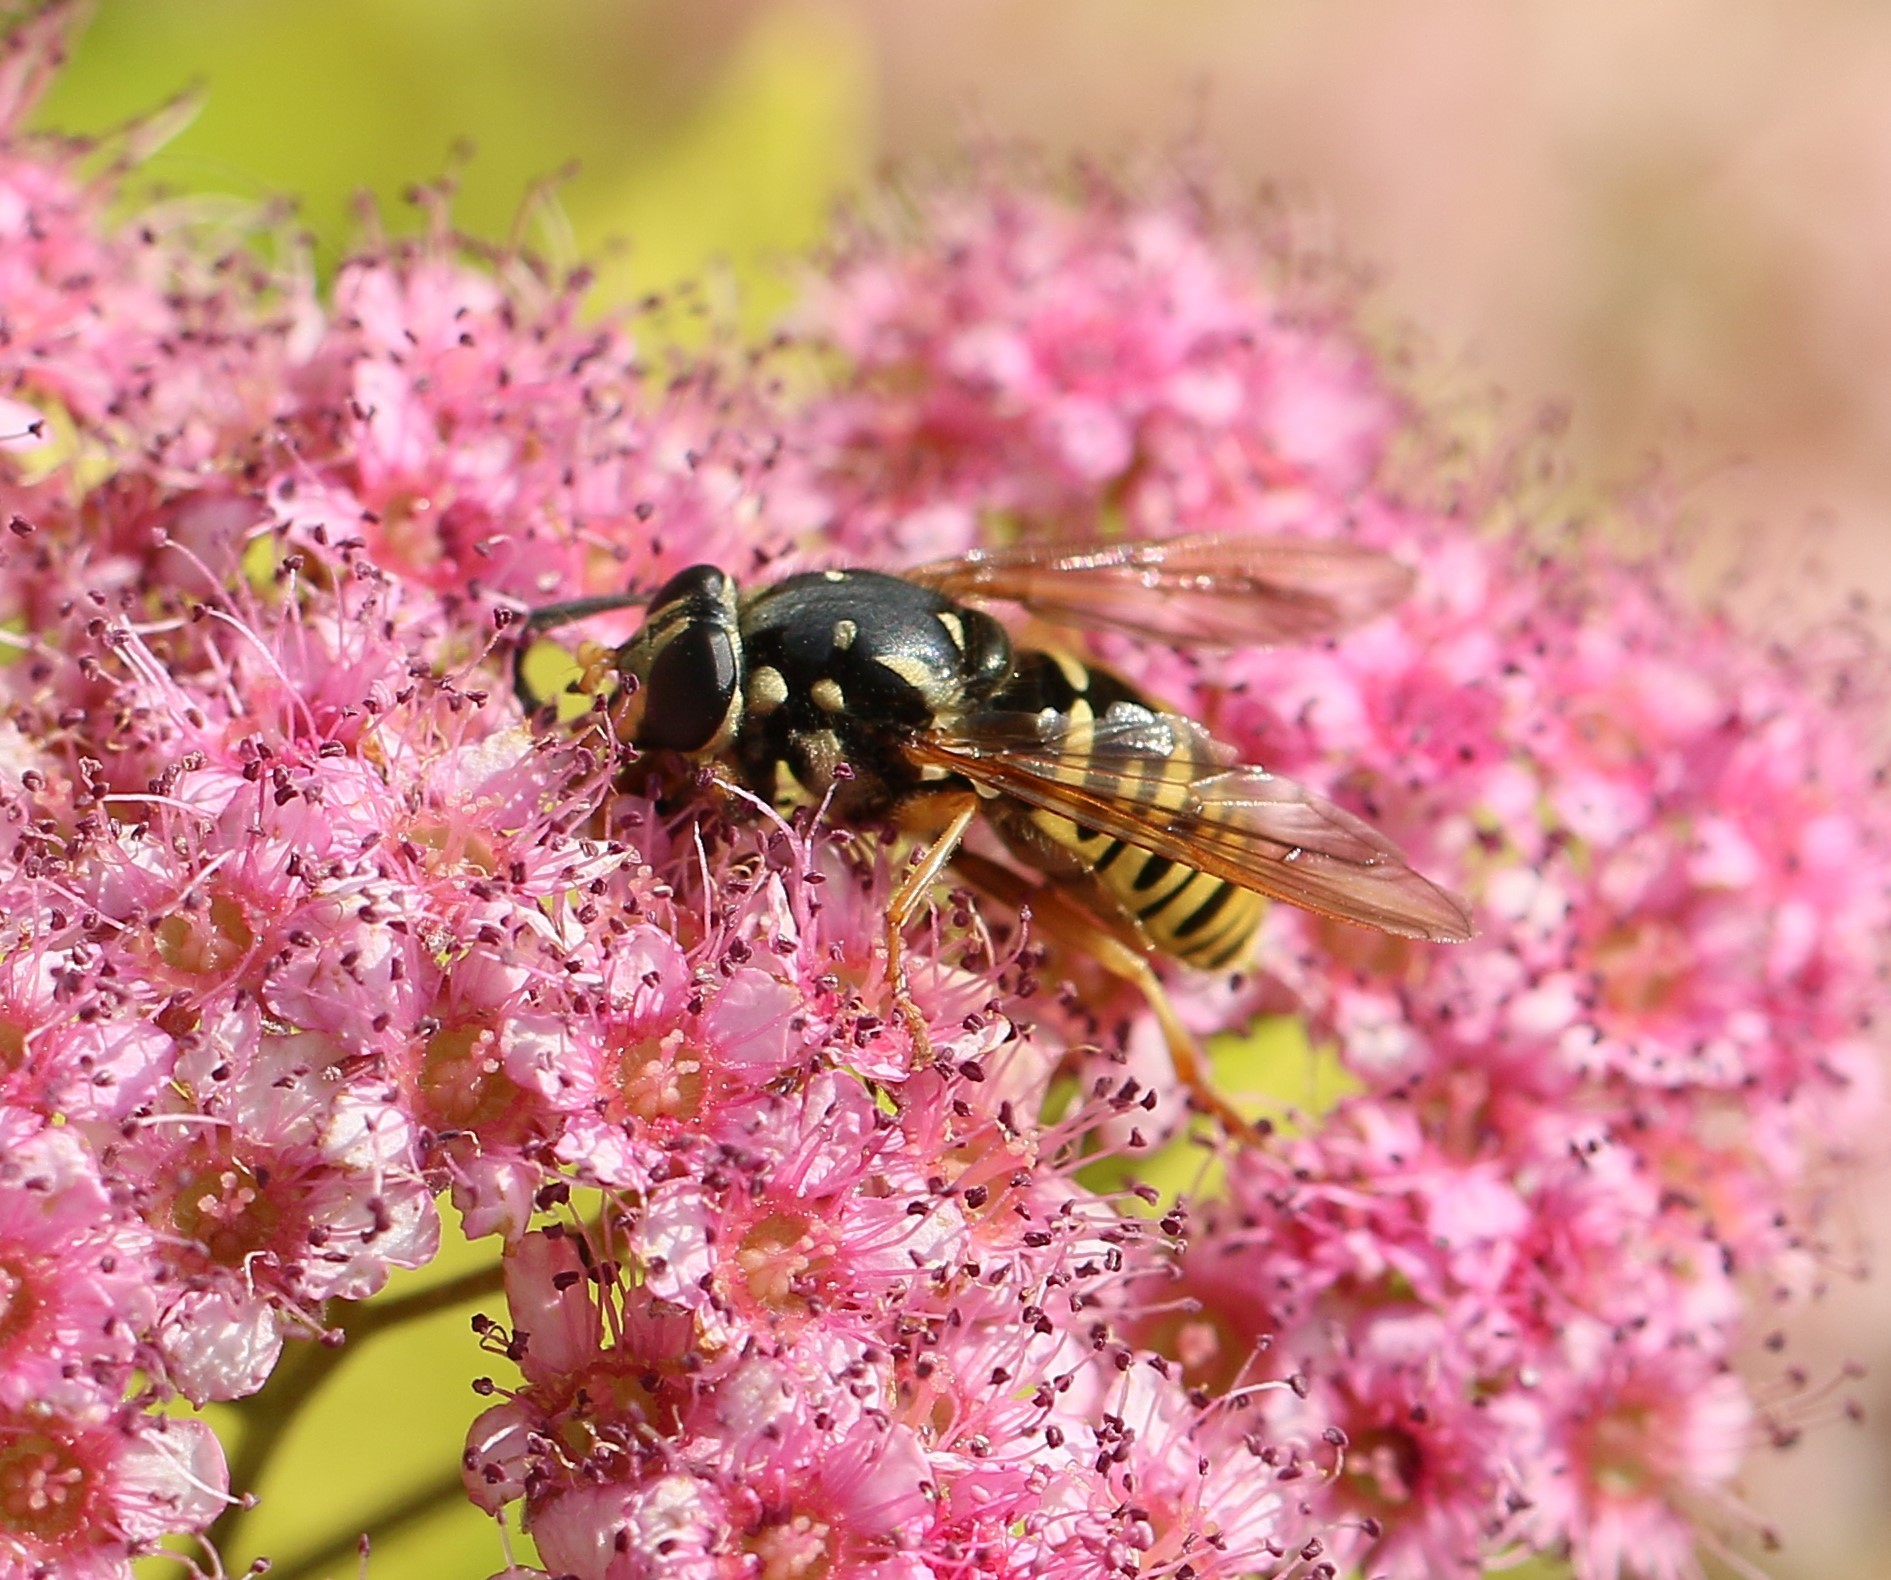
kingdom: Animalia
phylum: Arthropoda
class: Insecta
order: Diptera
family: Syrphidae
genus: Temnostoma
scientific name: Temnostoma alternans
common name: Wasp-like falsehorn
